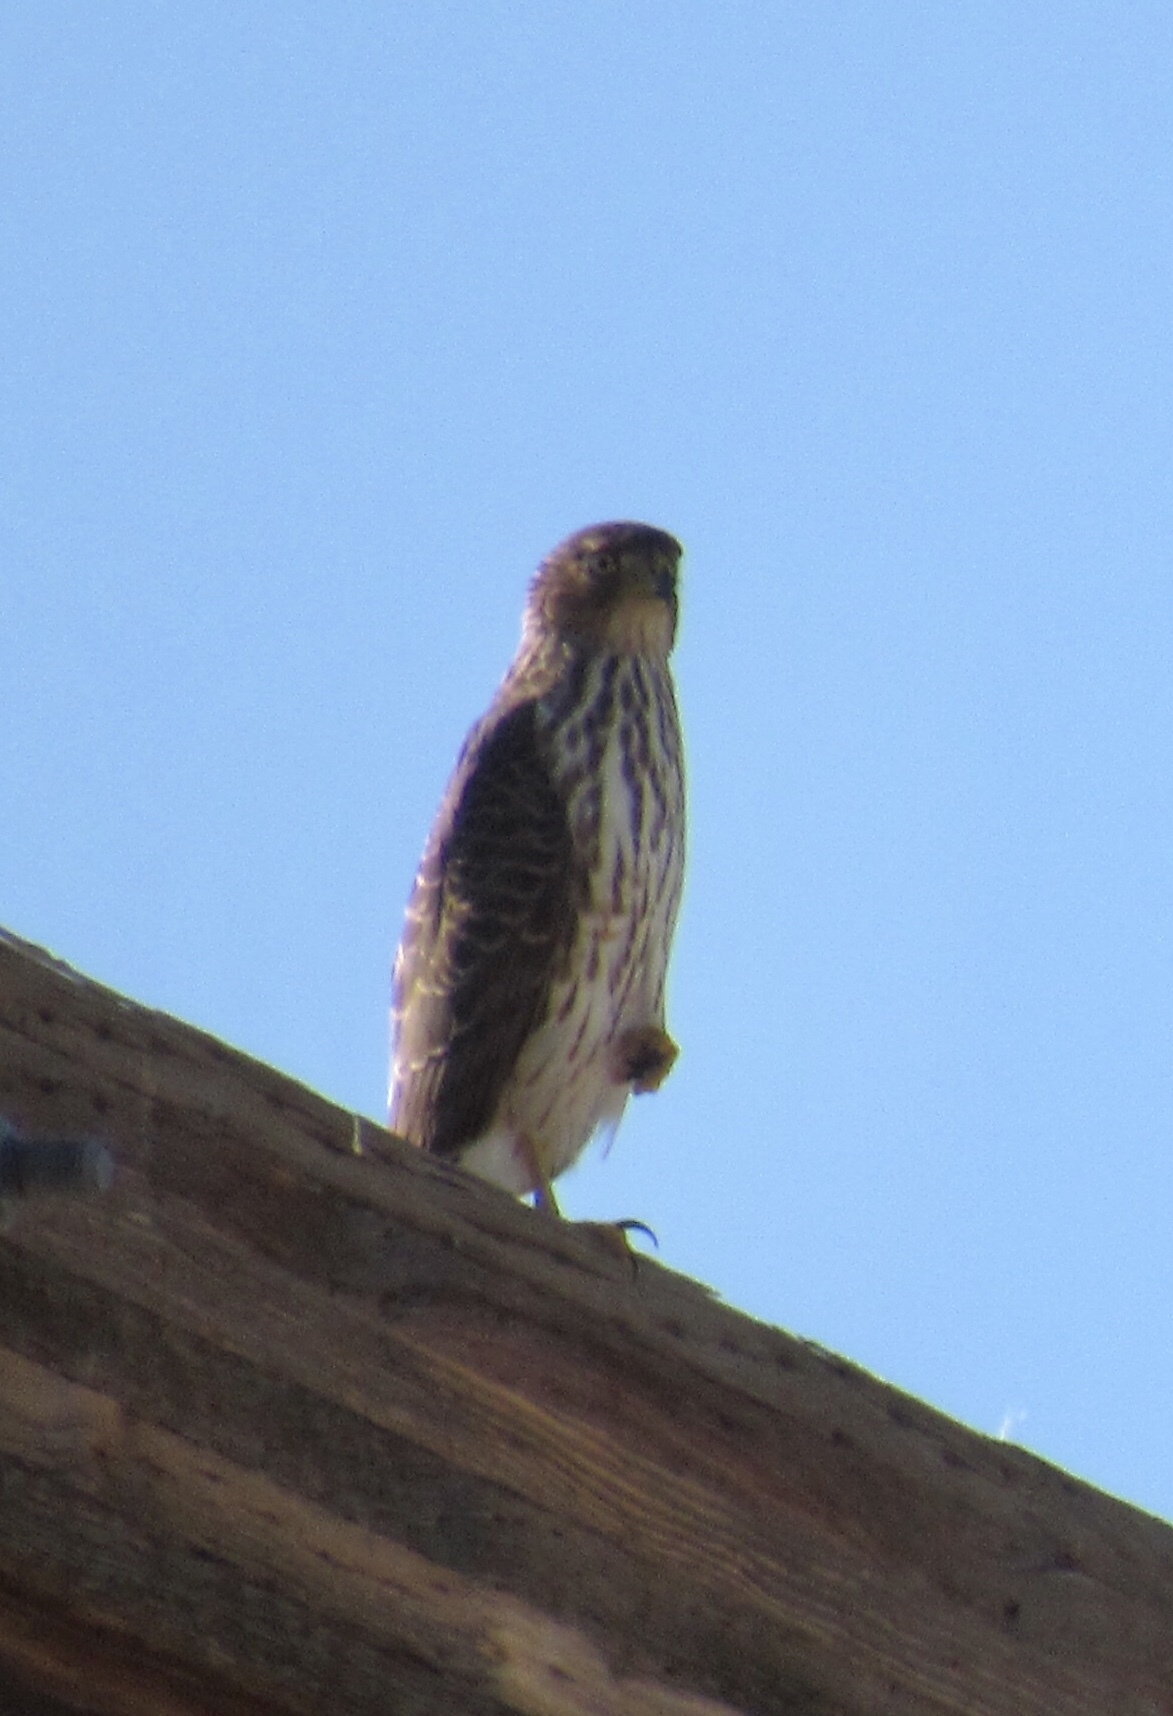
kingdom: Animalia
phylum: Chordata
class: Aves
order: Accipitriformes
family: Accipitridae
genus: Accipiter
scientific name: Accipiter cooperii
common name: Cooper's hawk
